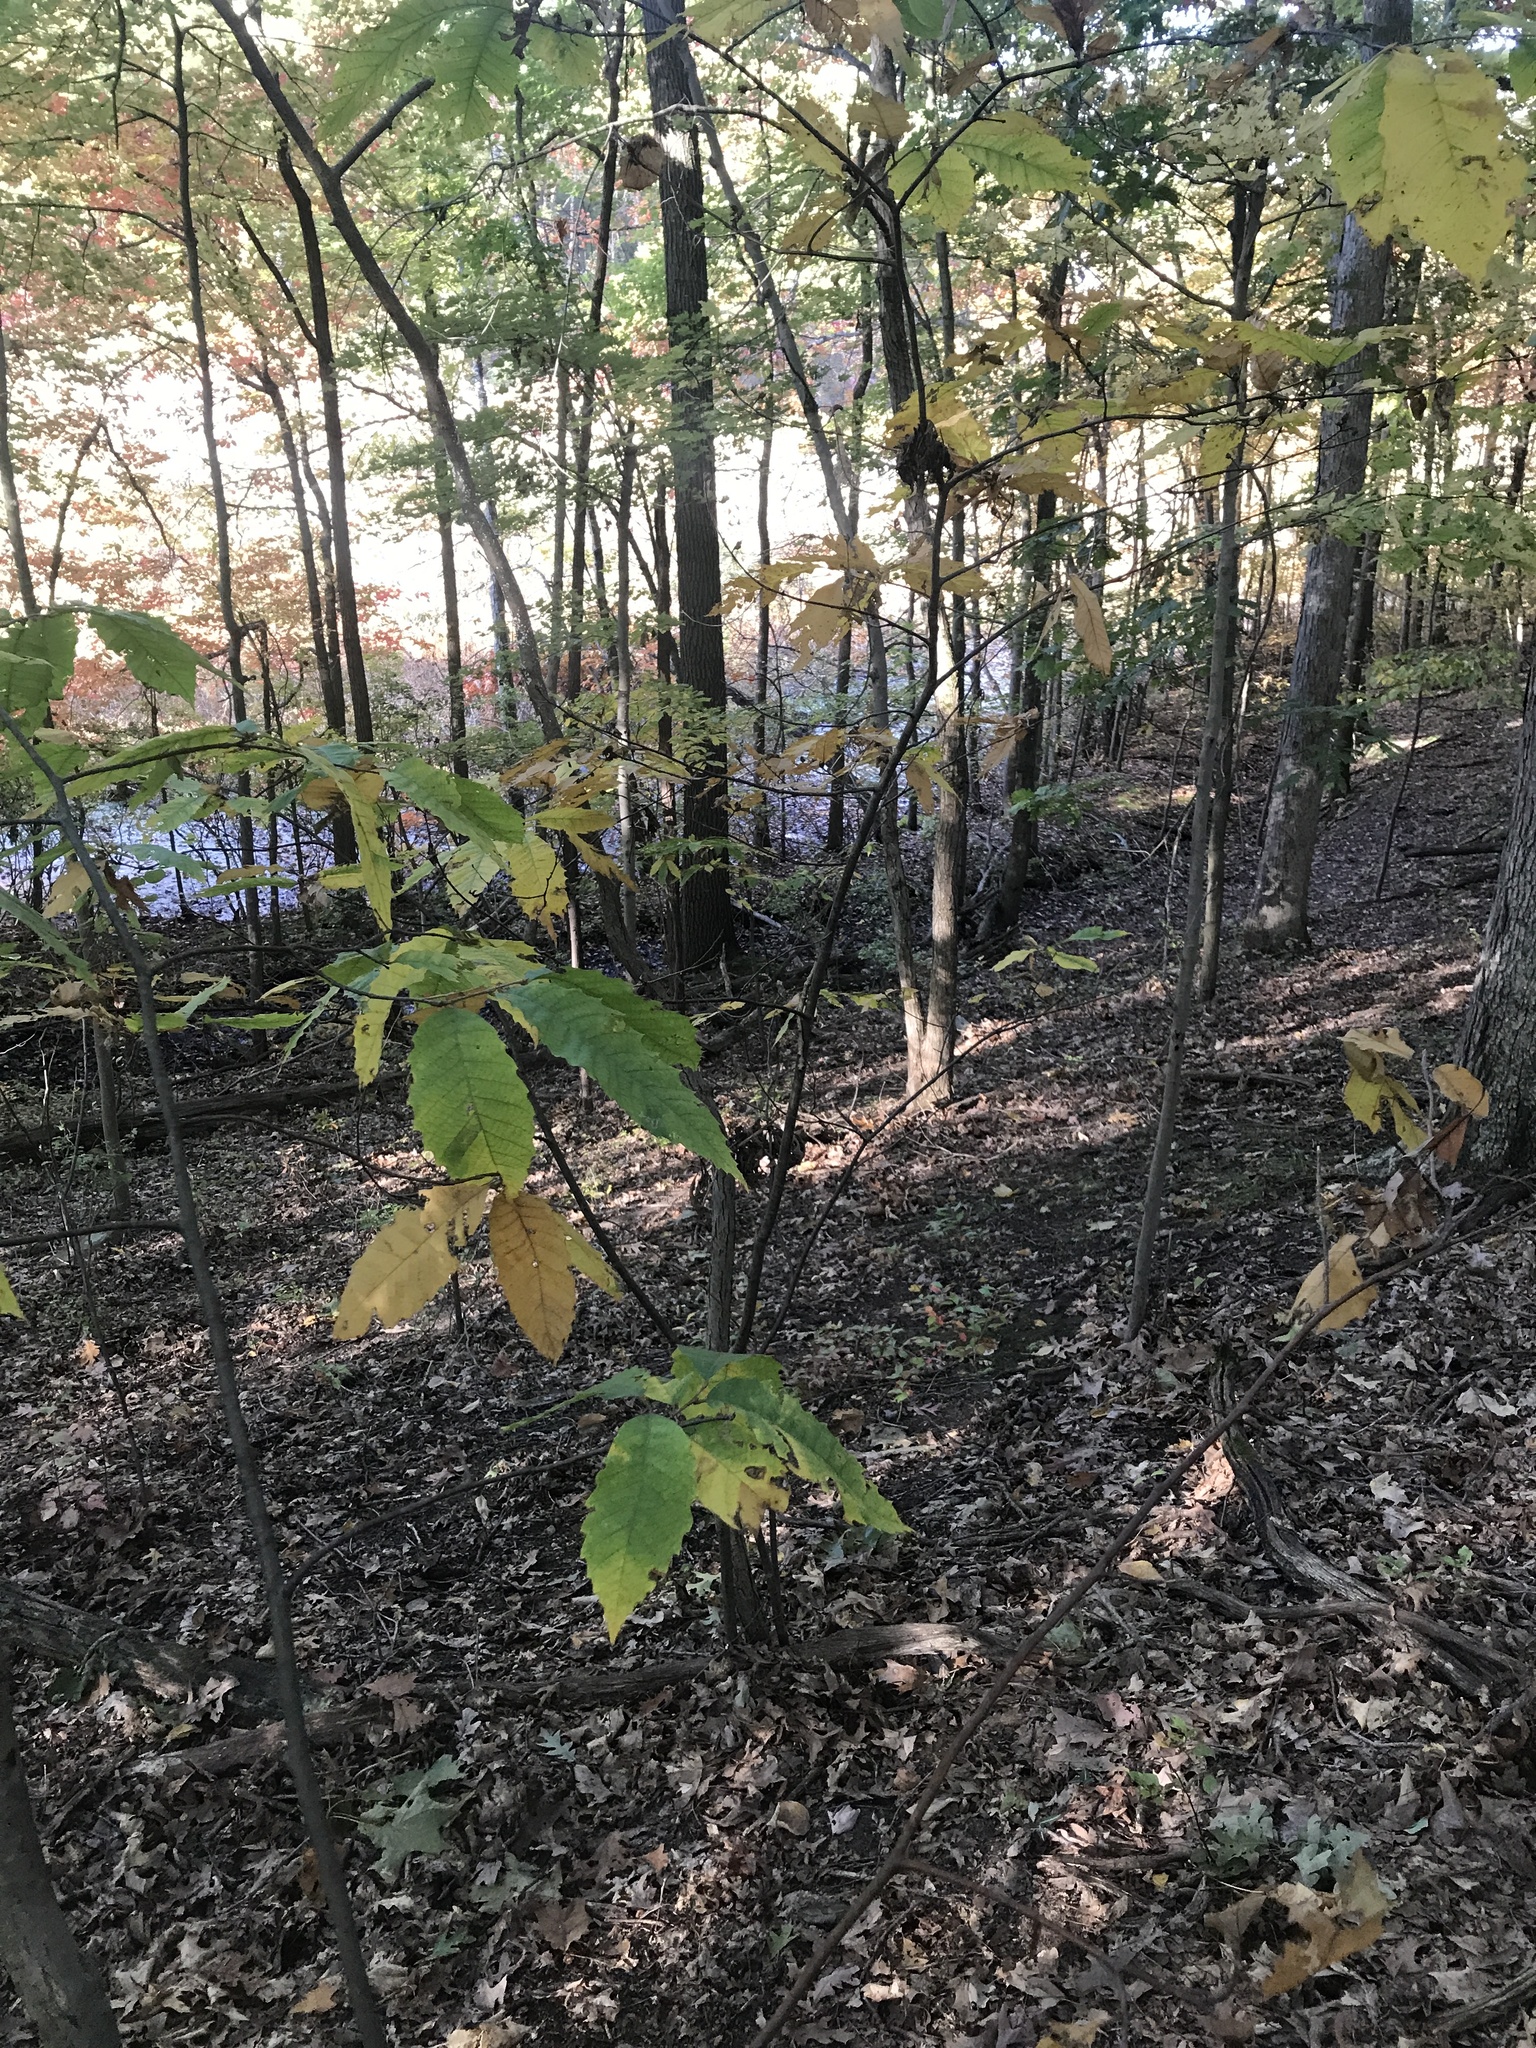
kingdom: Plantae
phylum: Tracheophyta
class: Magnoliopsida
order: Fagales
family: Fagaceae
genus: Castanea
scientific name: Castanea dentata
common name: American chestnut
